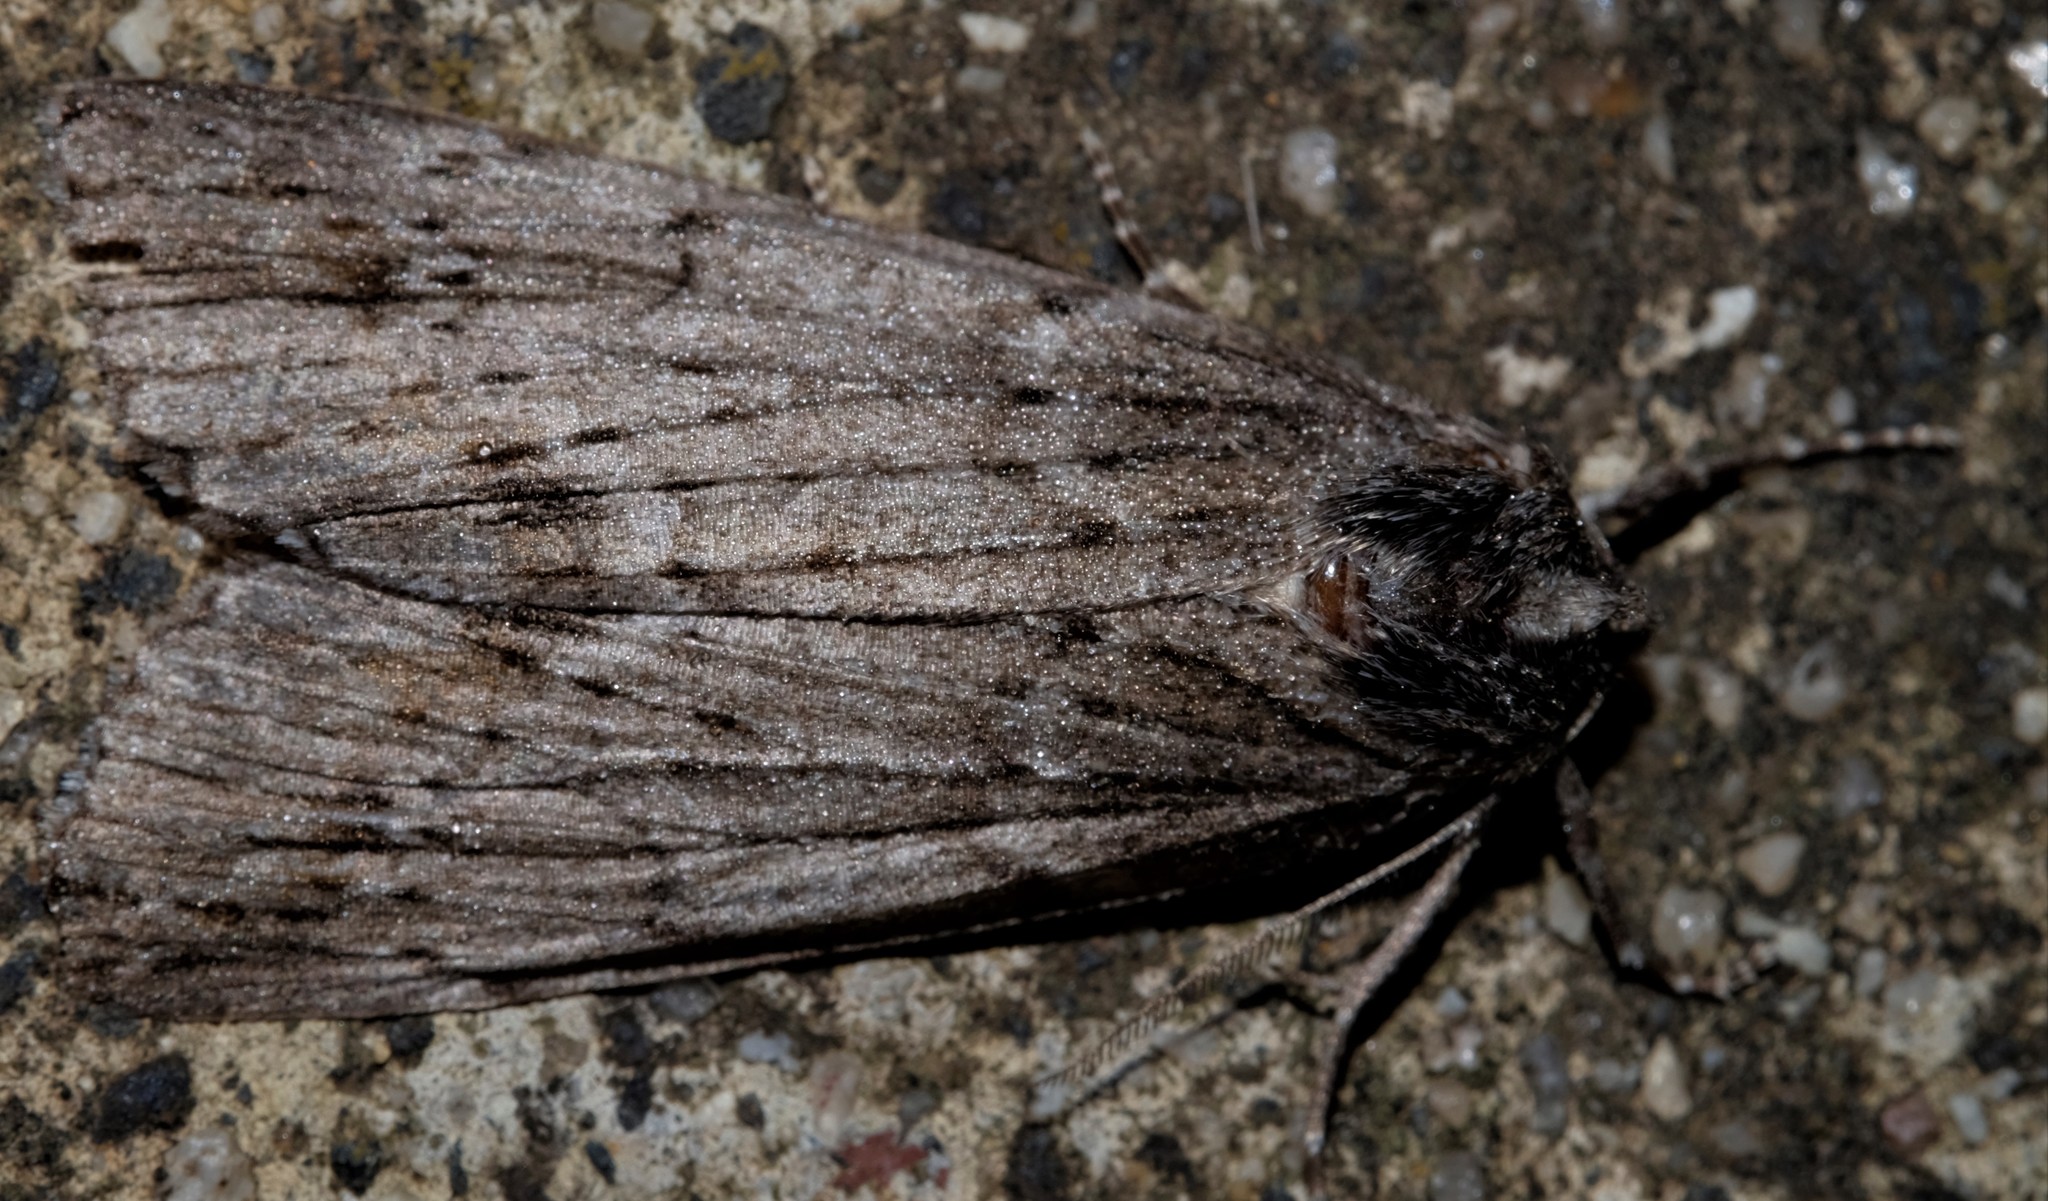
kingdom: Animalia
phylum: Arthropoda
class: Insecta
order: Lepidoptera
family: Geometridae
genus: Chlenias
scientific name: Chlenias banksiaria
